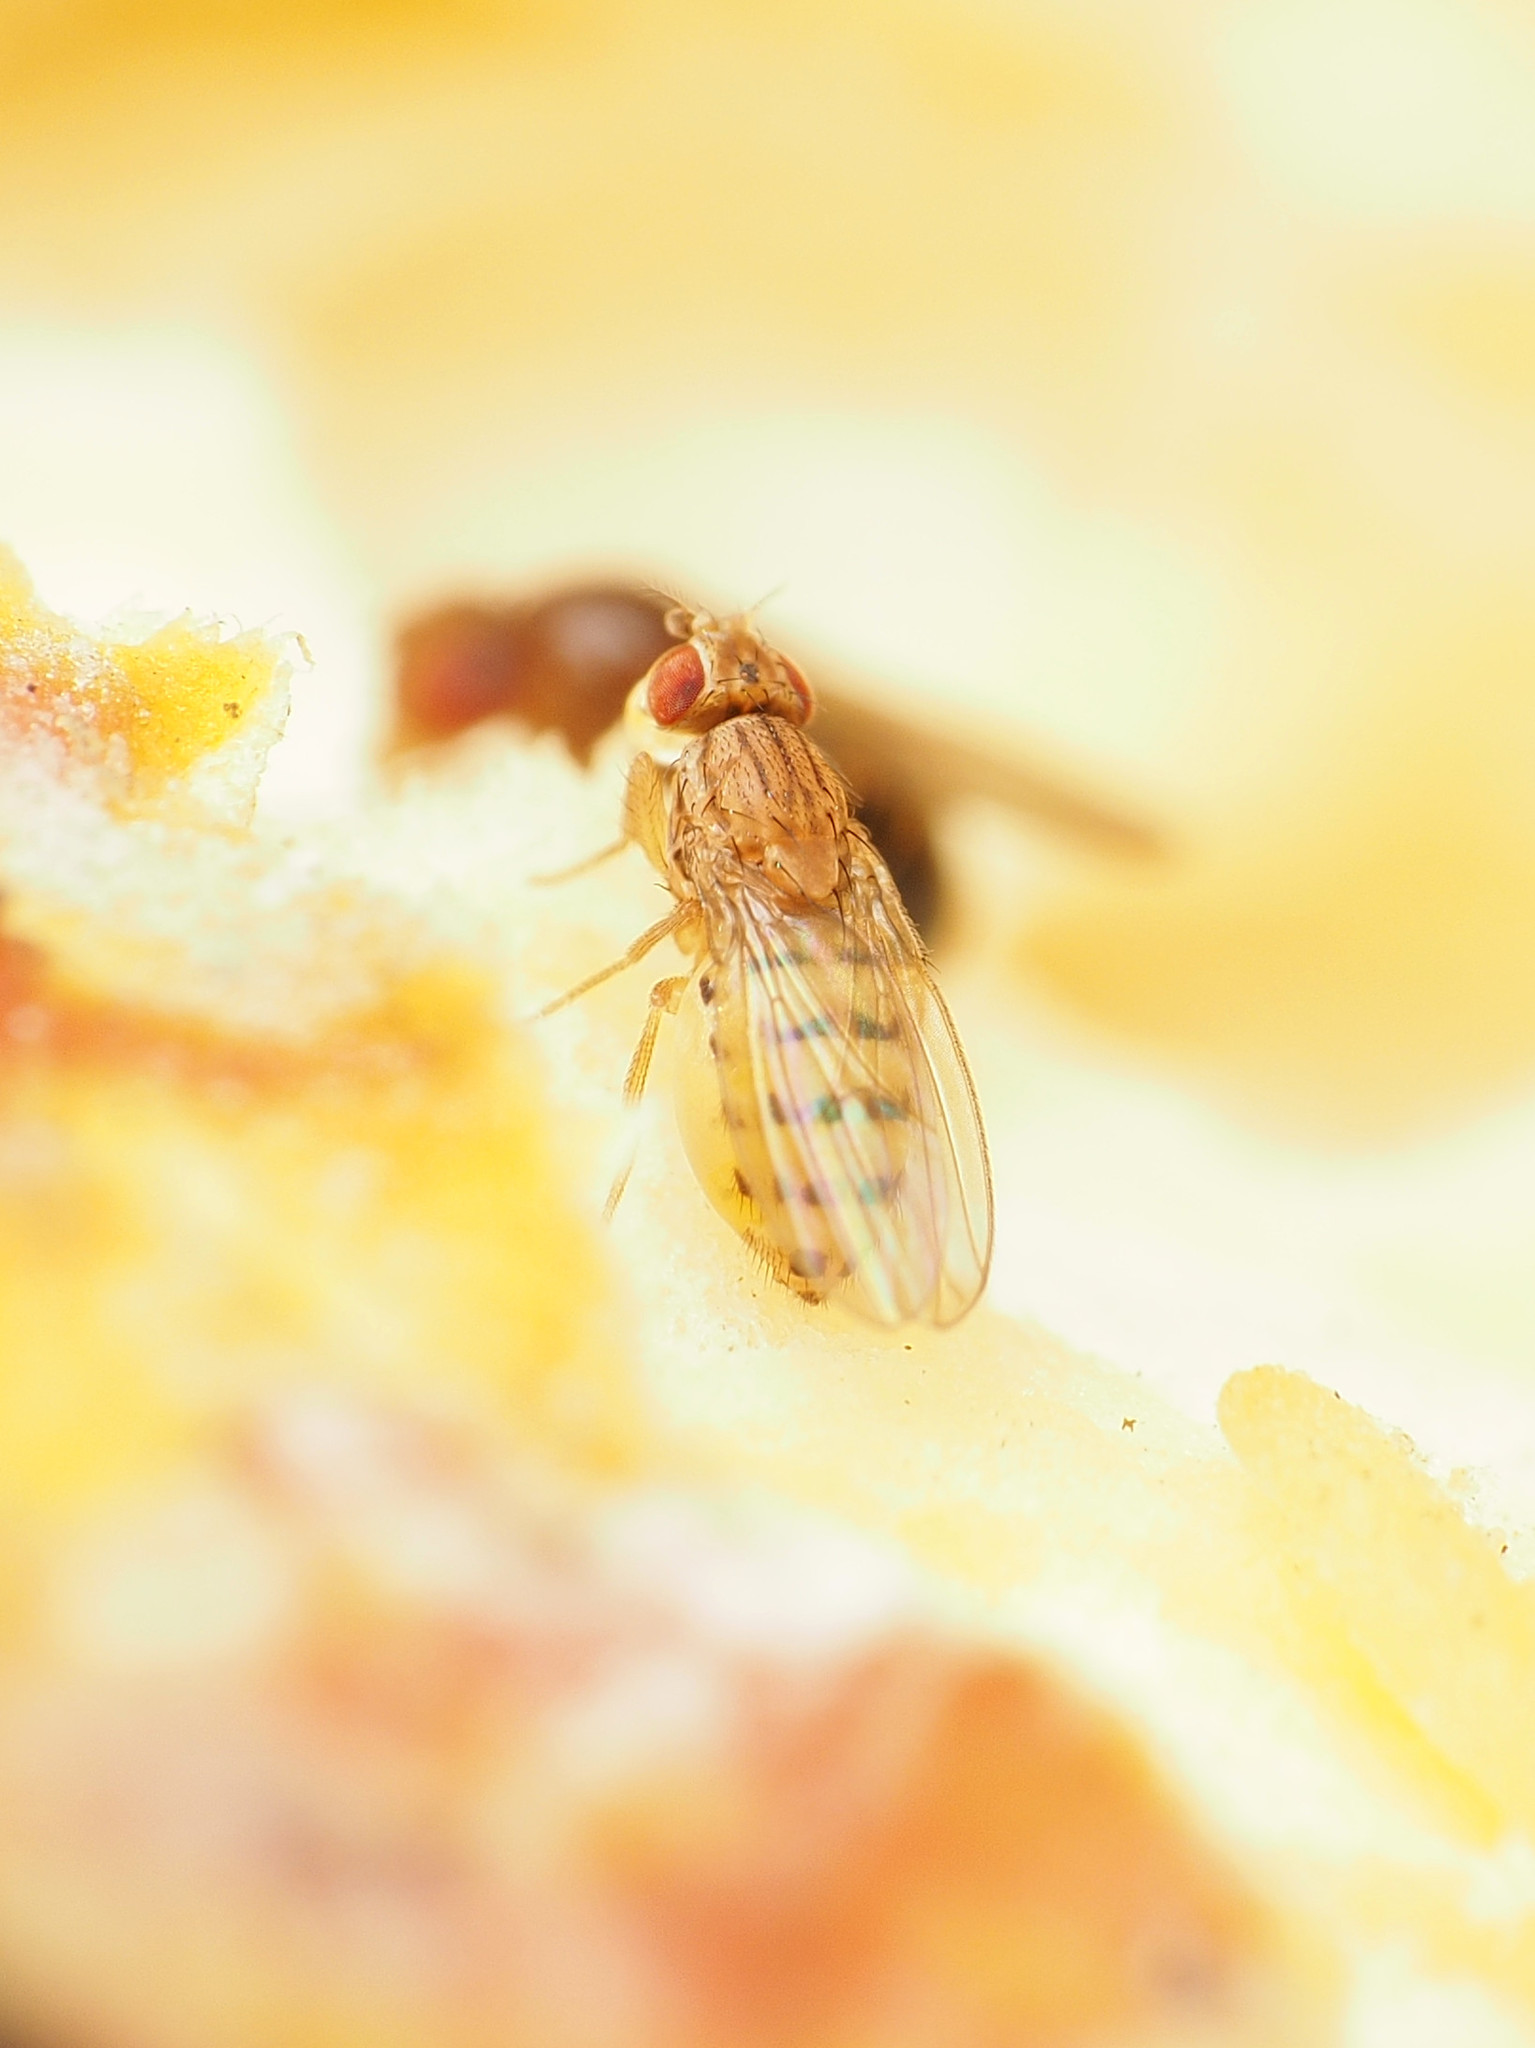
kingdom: Animalia
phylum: Arthropoda
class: Insecta
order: Diptera
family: Drosophilidae
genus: Drosophila
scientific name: Drosophila busckii
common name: Pomace fly
